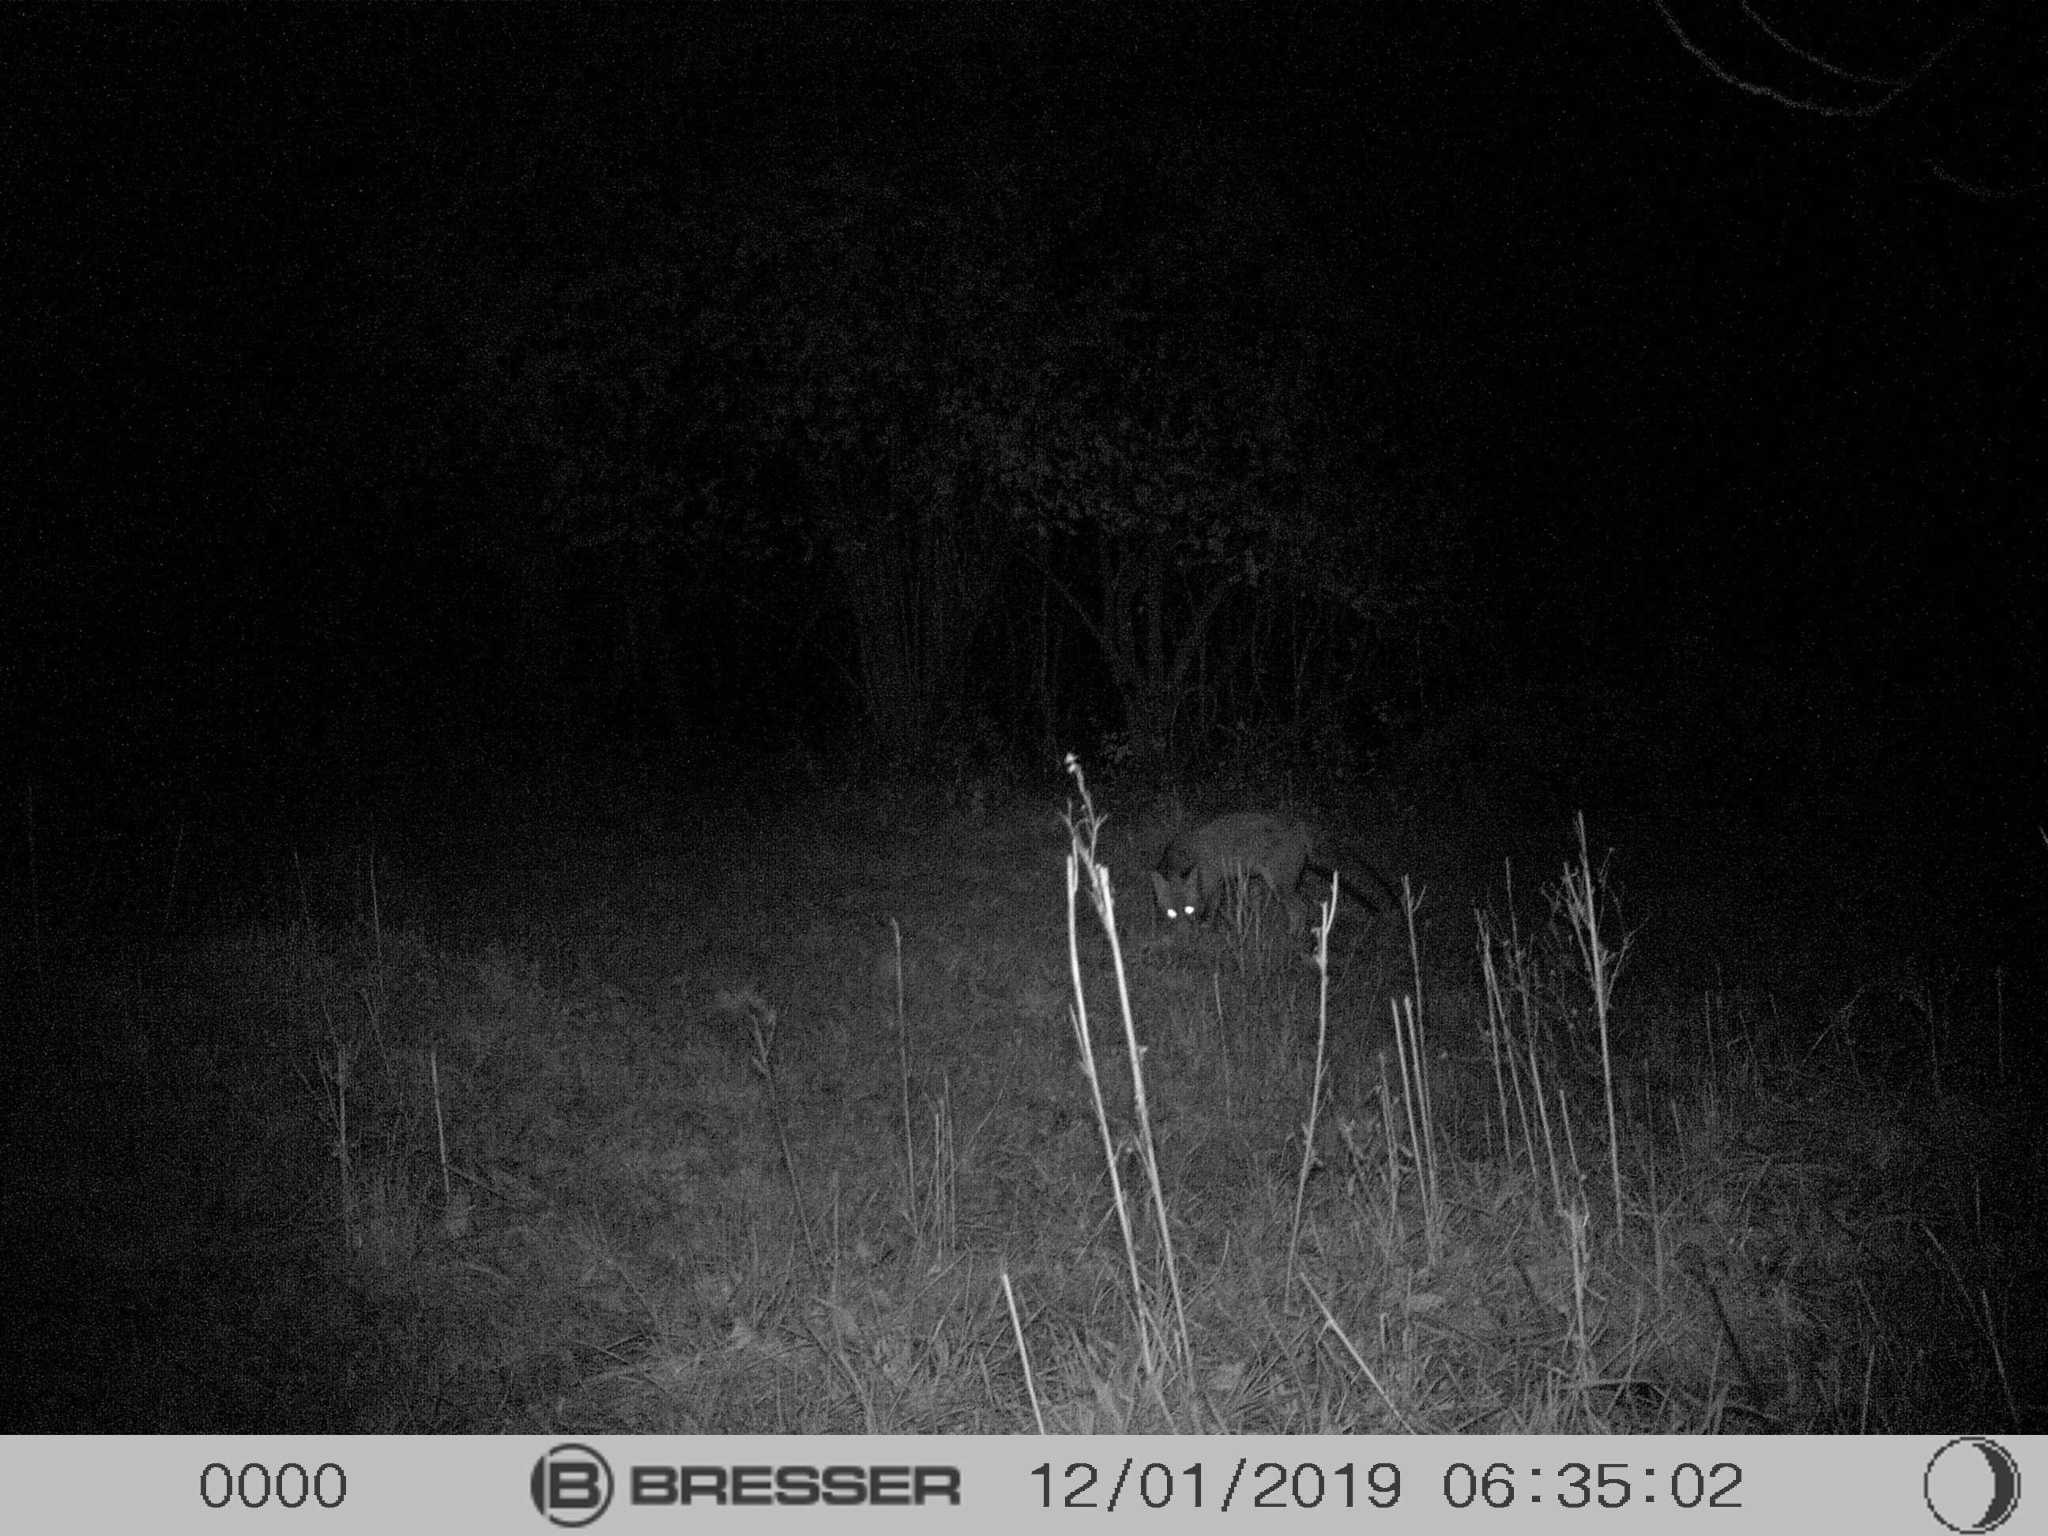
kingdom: Animalia
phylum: Chordata
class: Mammalia
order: Carnivora
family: Canidae
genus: Vulpes
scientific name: Vulpes vulpes
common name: Red fox
